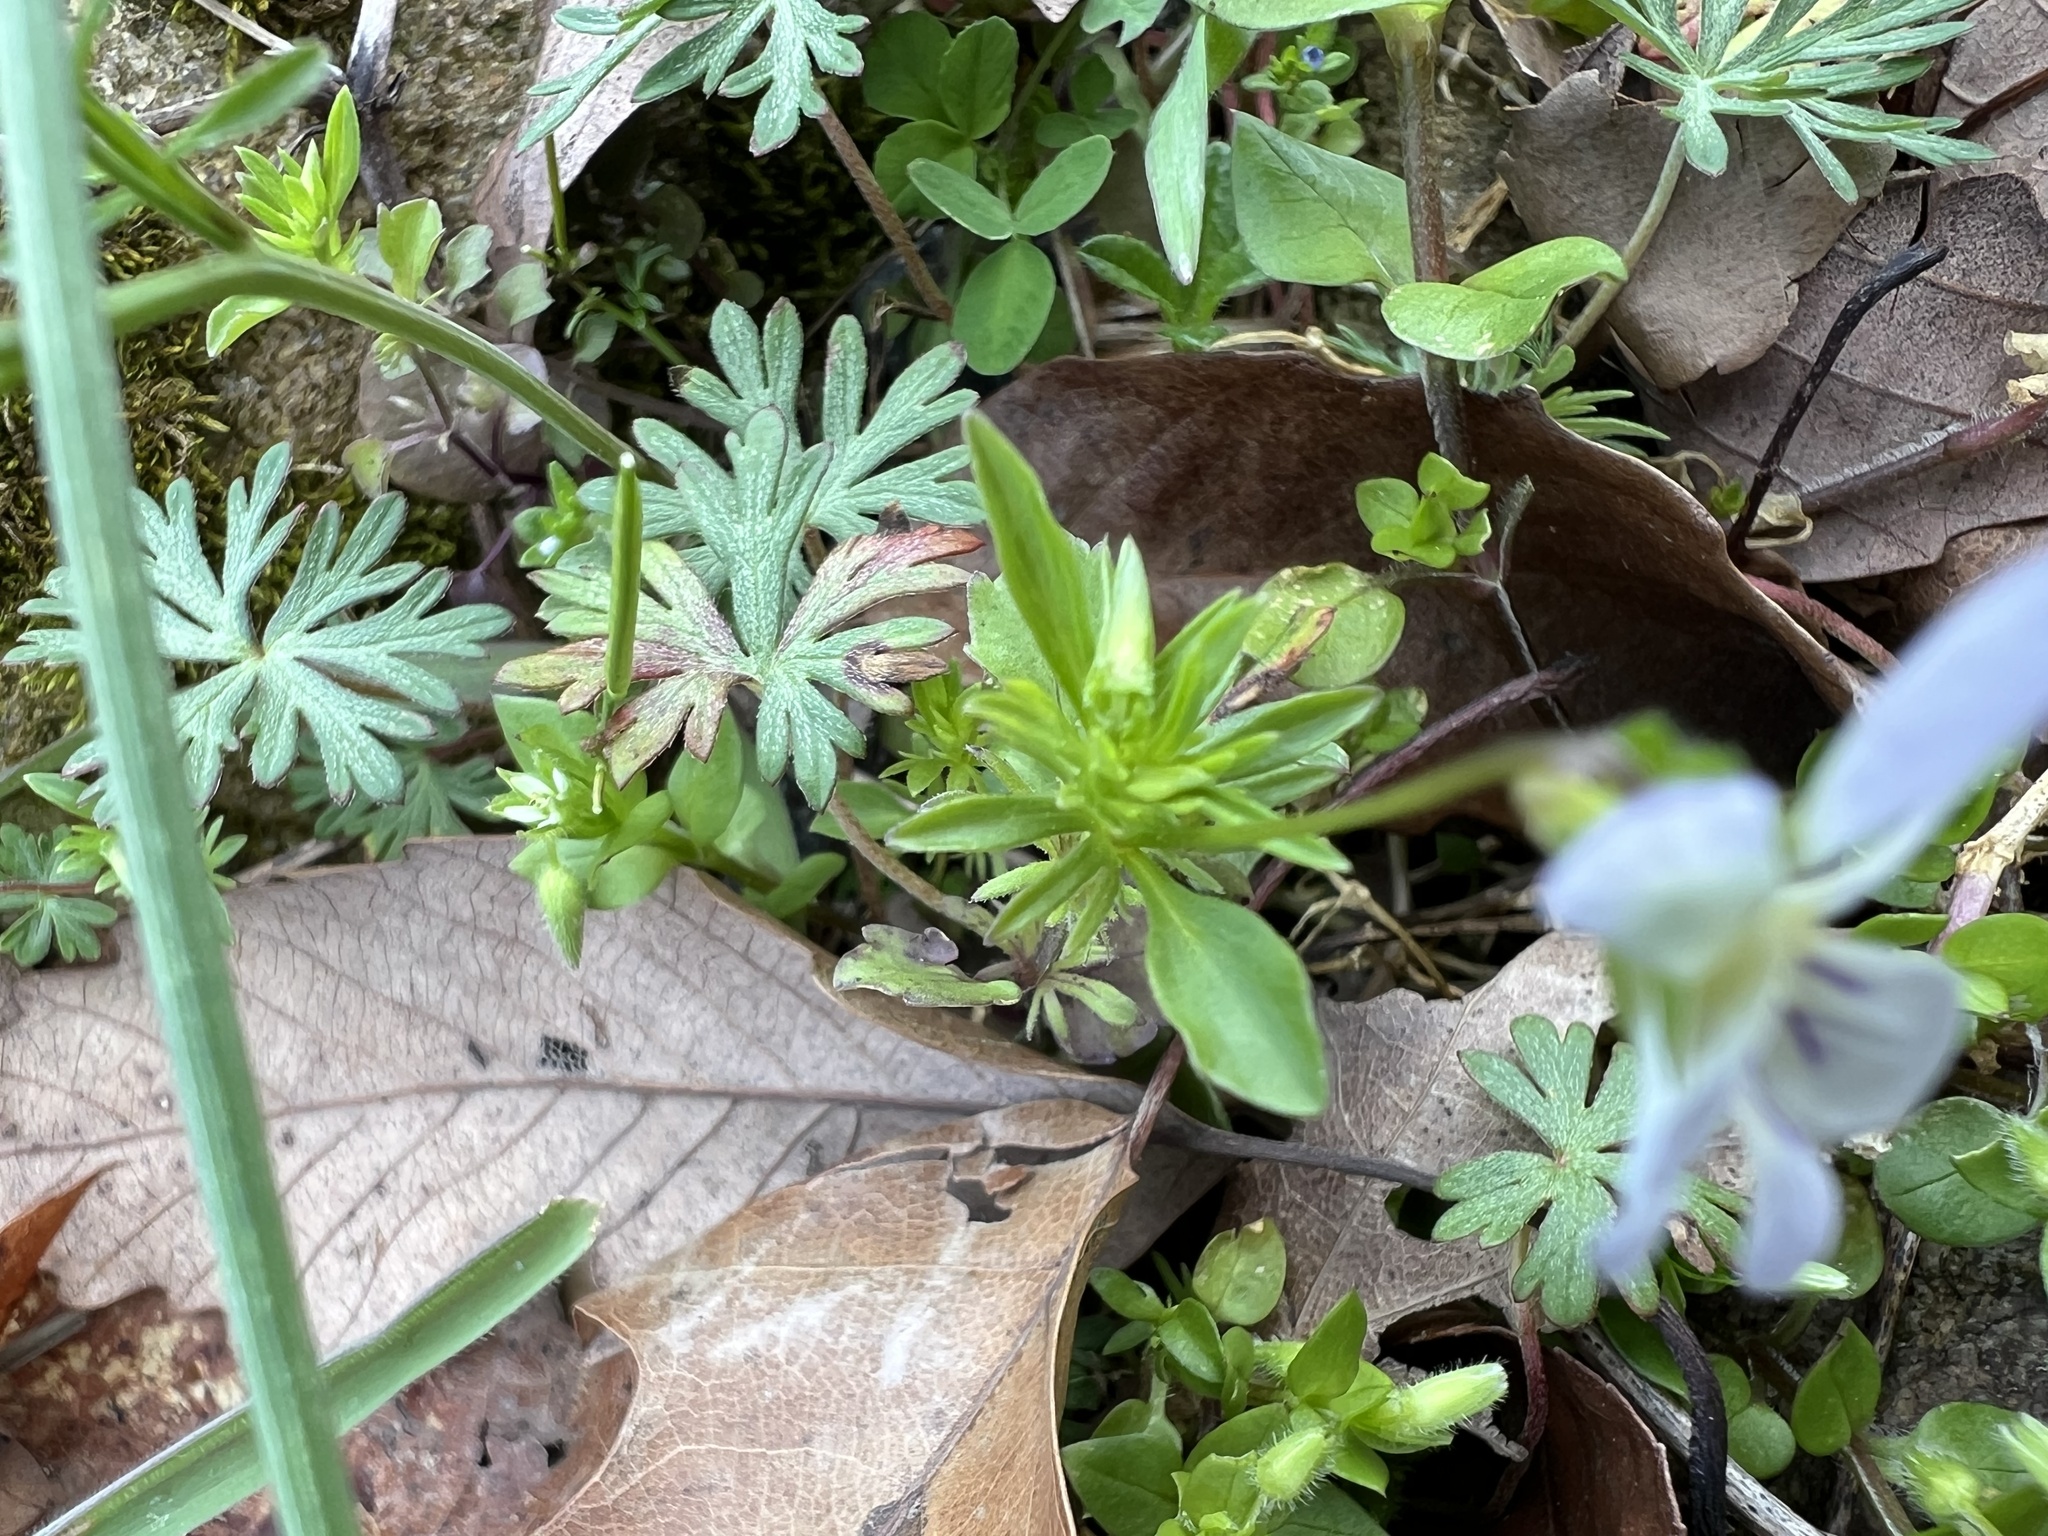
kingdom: Plantae
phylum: Tracheophyta
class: Magnoliopsida
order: Malpighiales
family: Violaceae
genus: Viola
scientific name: Viola rafinesquei
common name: American field pansy
